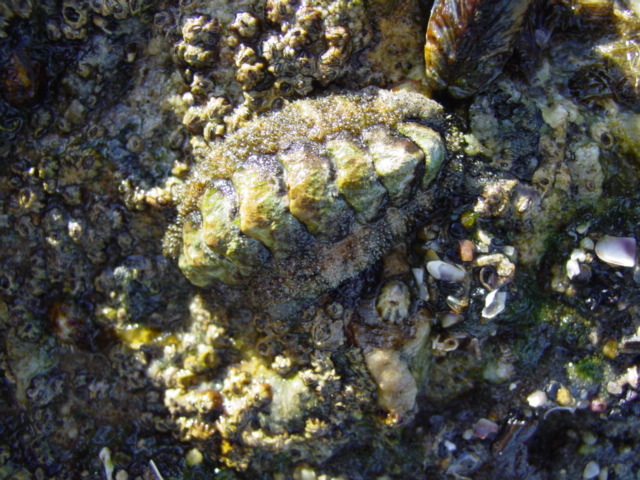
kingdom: Animalia
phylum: Mollusca
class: Polyplacophora
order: Chitonida
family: Tonicellidae
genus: Nuttallina
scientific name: Nuttallina californica
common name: California nuttall chiton
